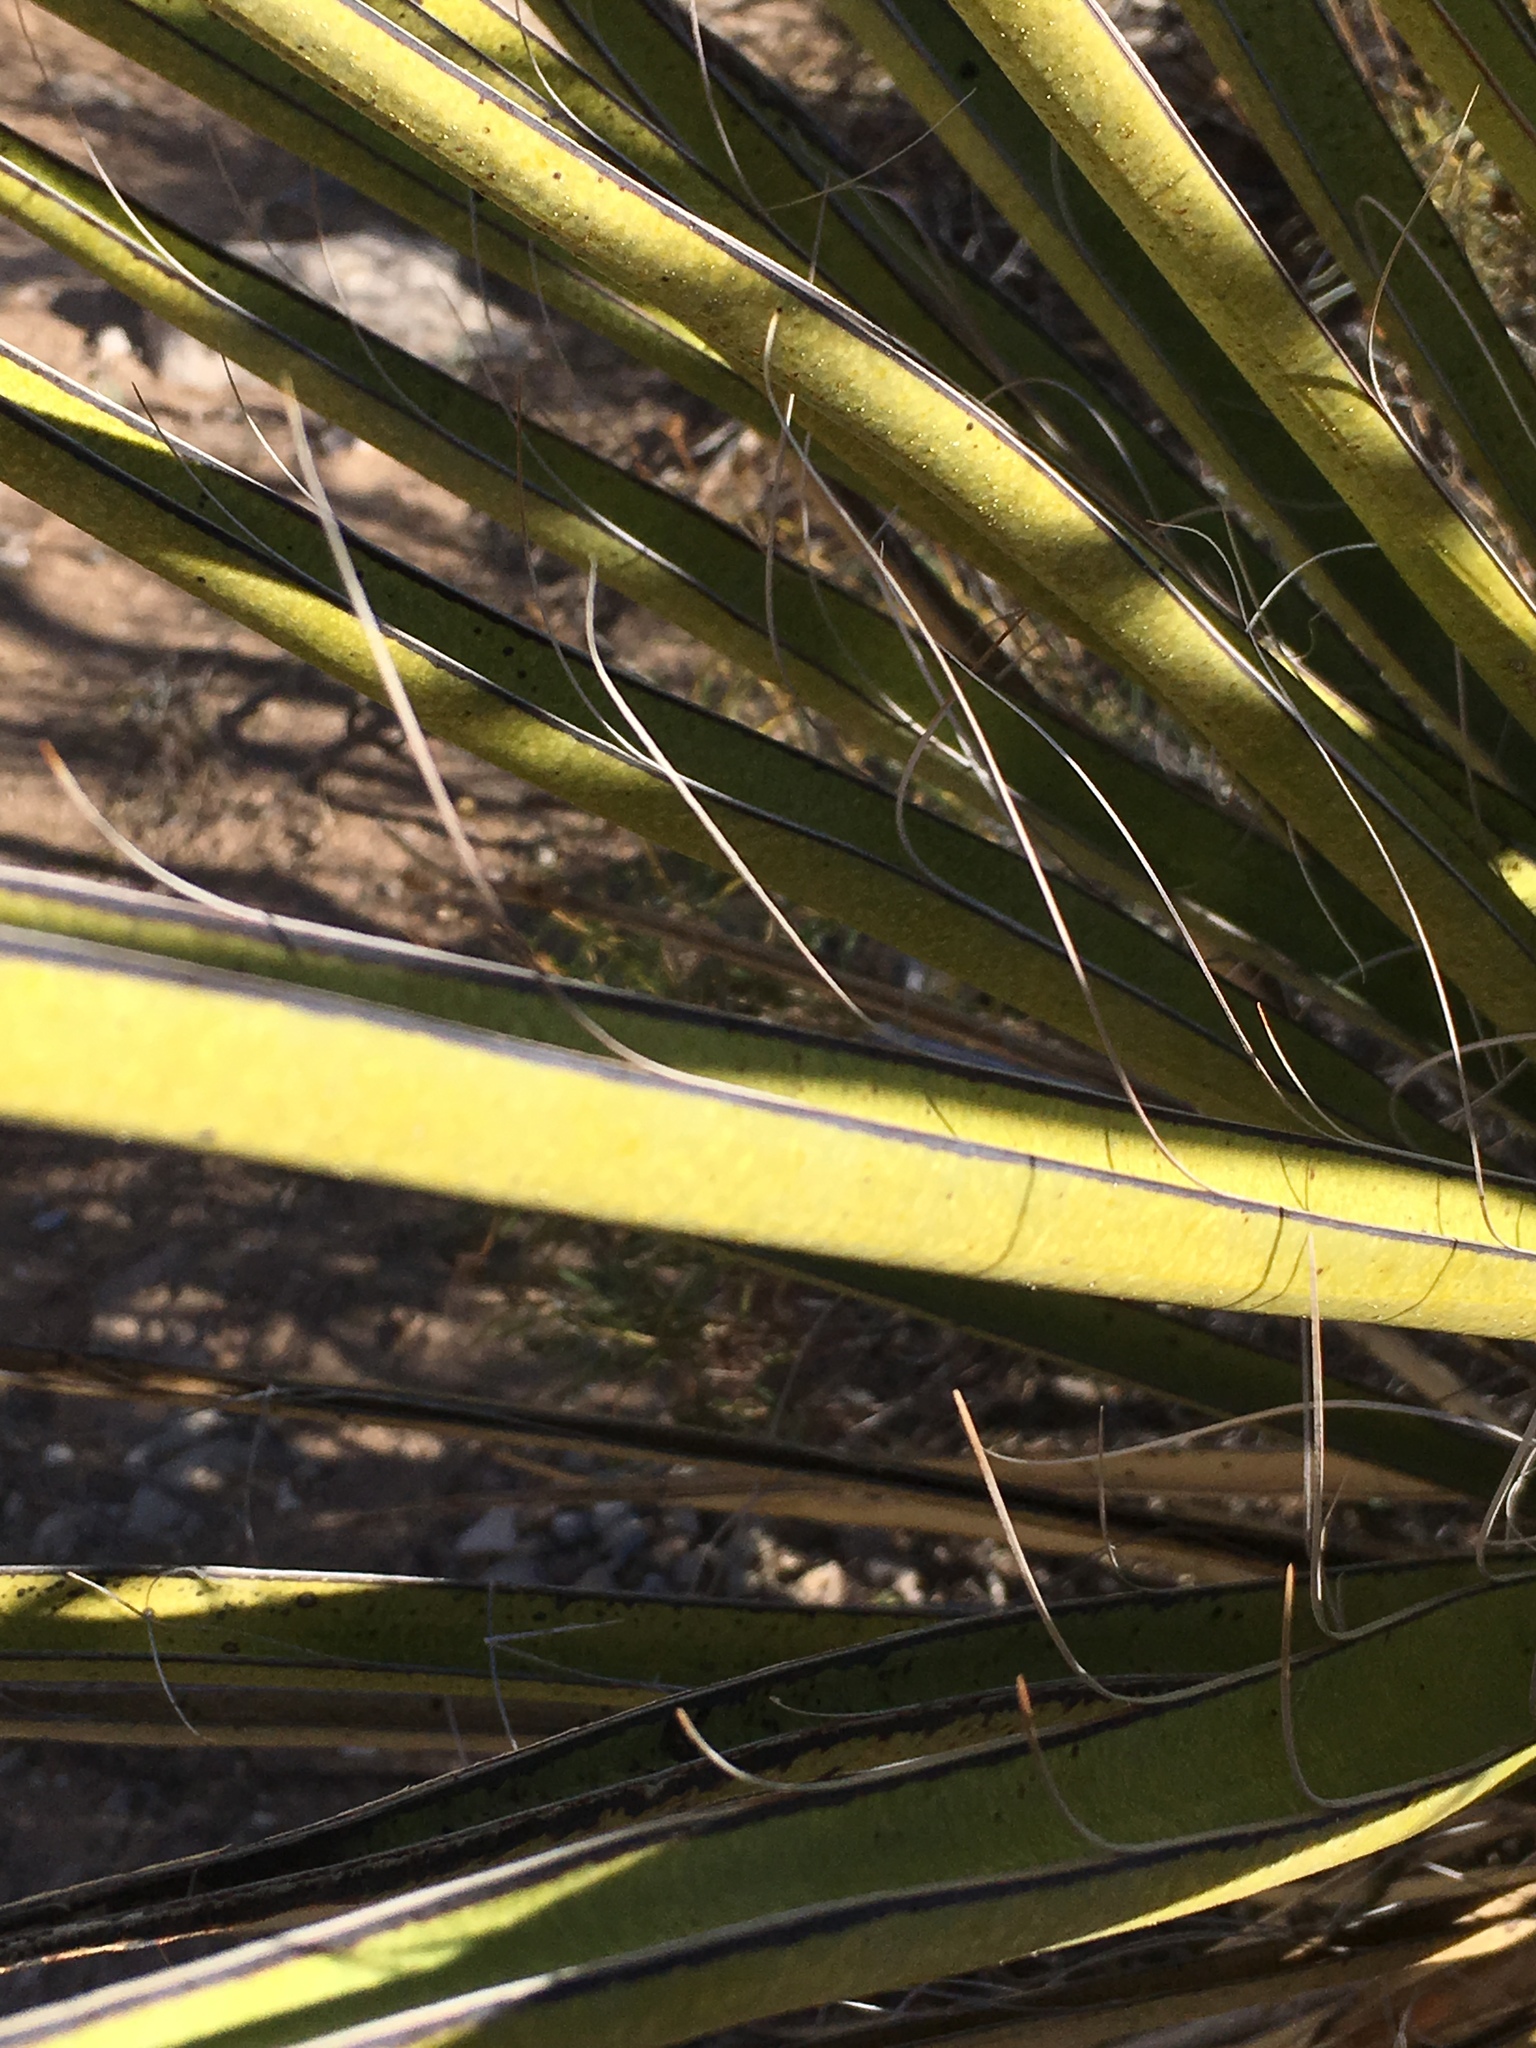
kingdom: Plantae
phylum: Tracheophyta
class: Liliopsida
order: Asparagales
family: Asparagaceae
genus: Yucca
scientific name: Yucca treculiana
